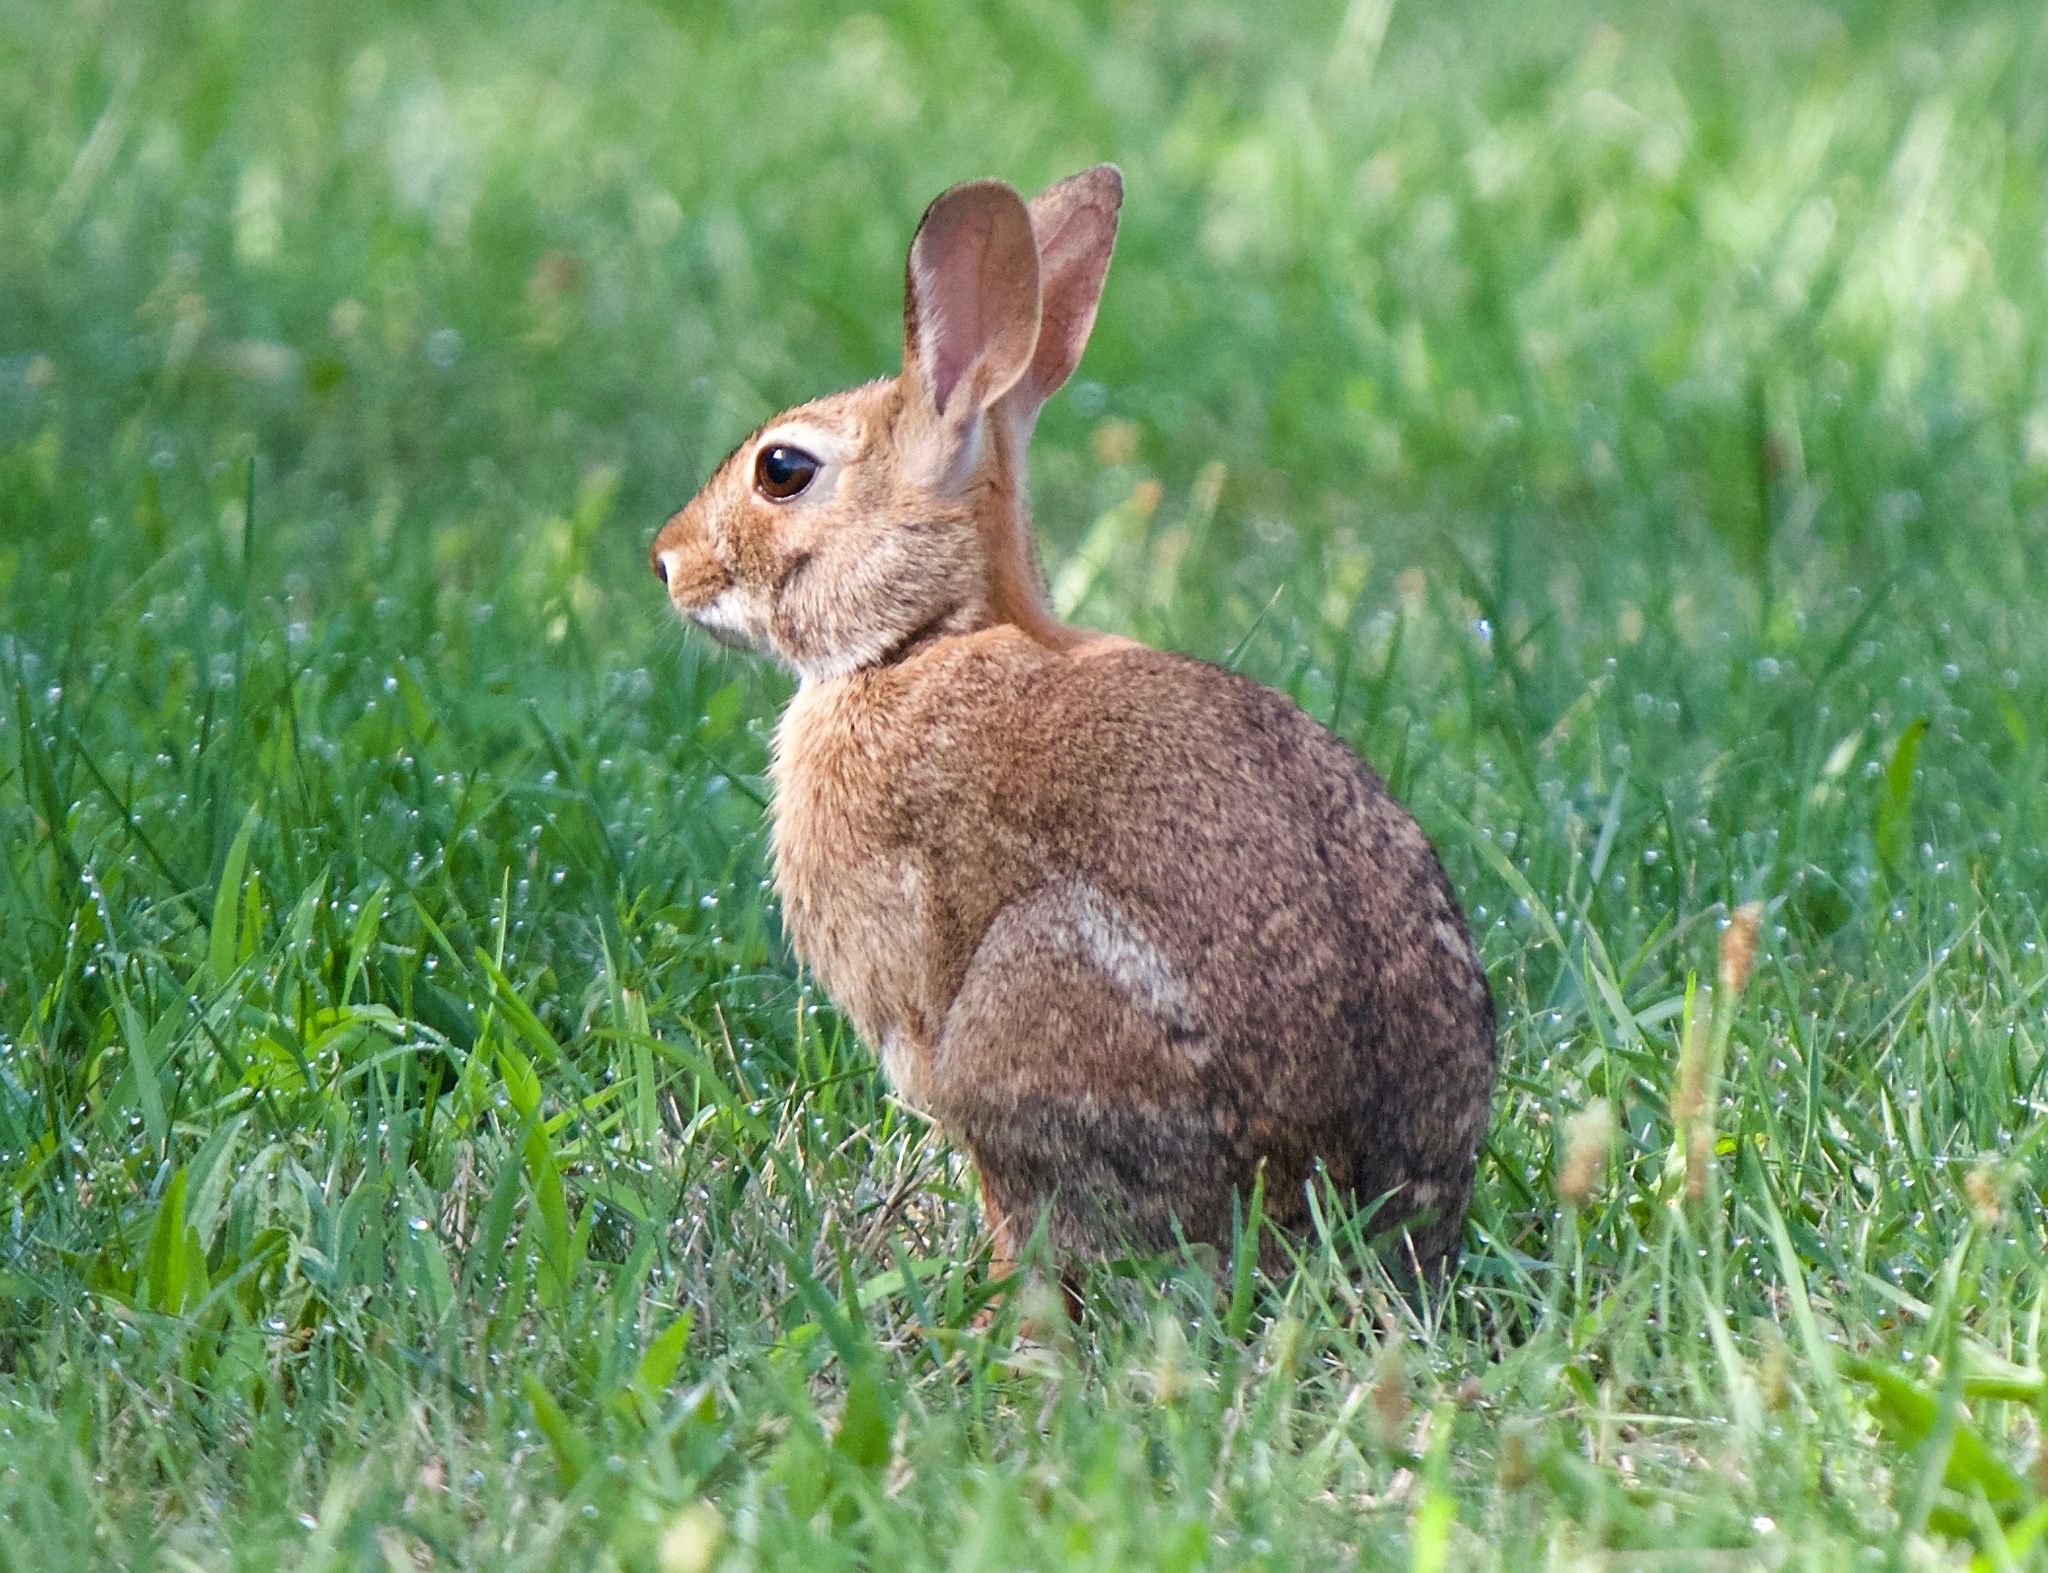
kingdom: Animalia
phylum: Chordata
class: Mammalia
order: Lagomorpha
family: Leporidae
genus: Sylvilagus
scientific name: Sylvilagus floridanus
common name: Eastern cottontail
